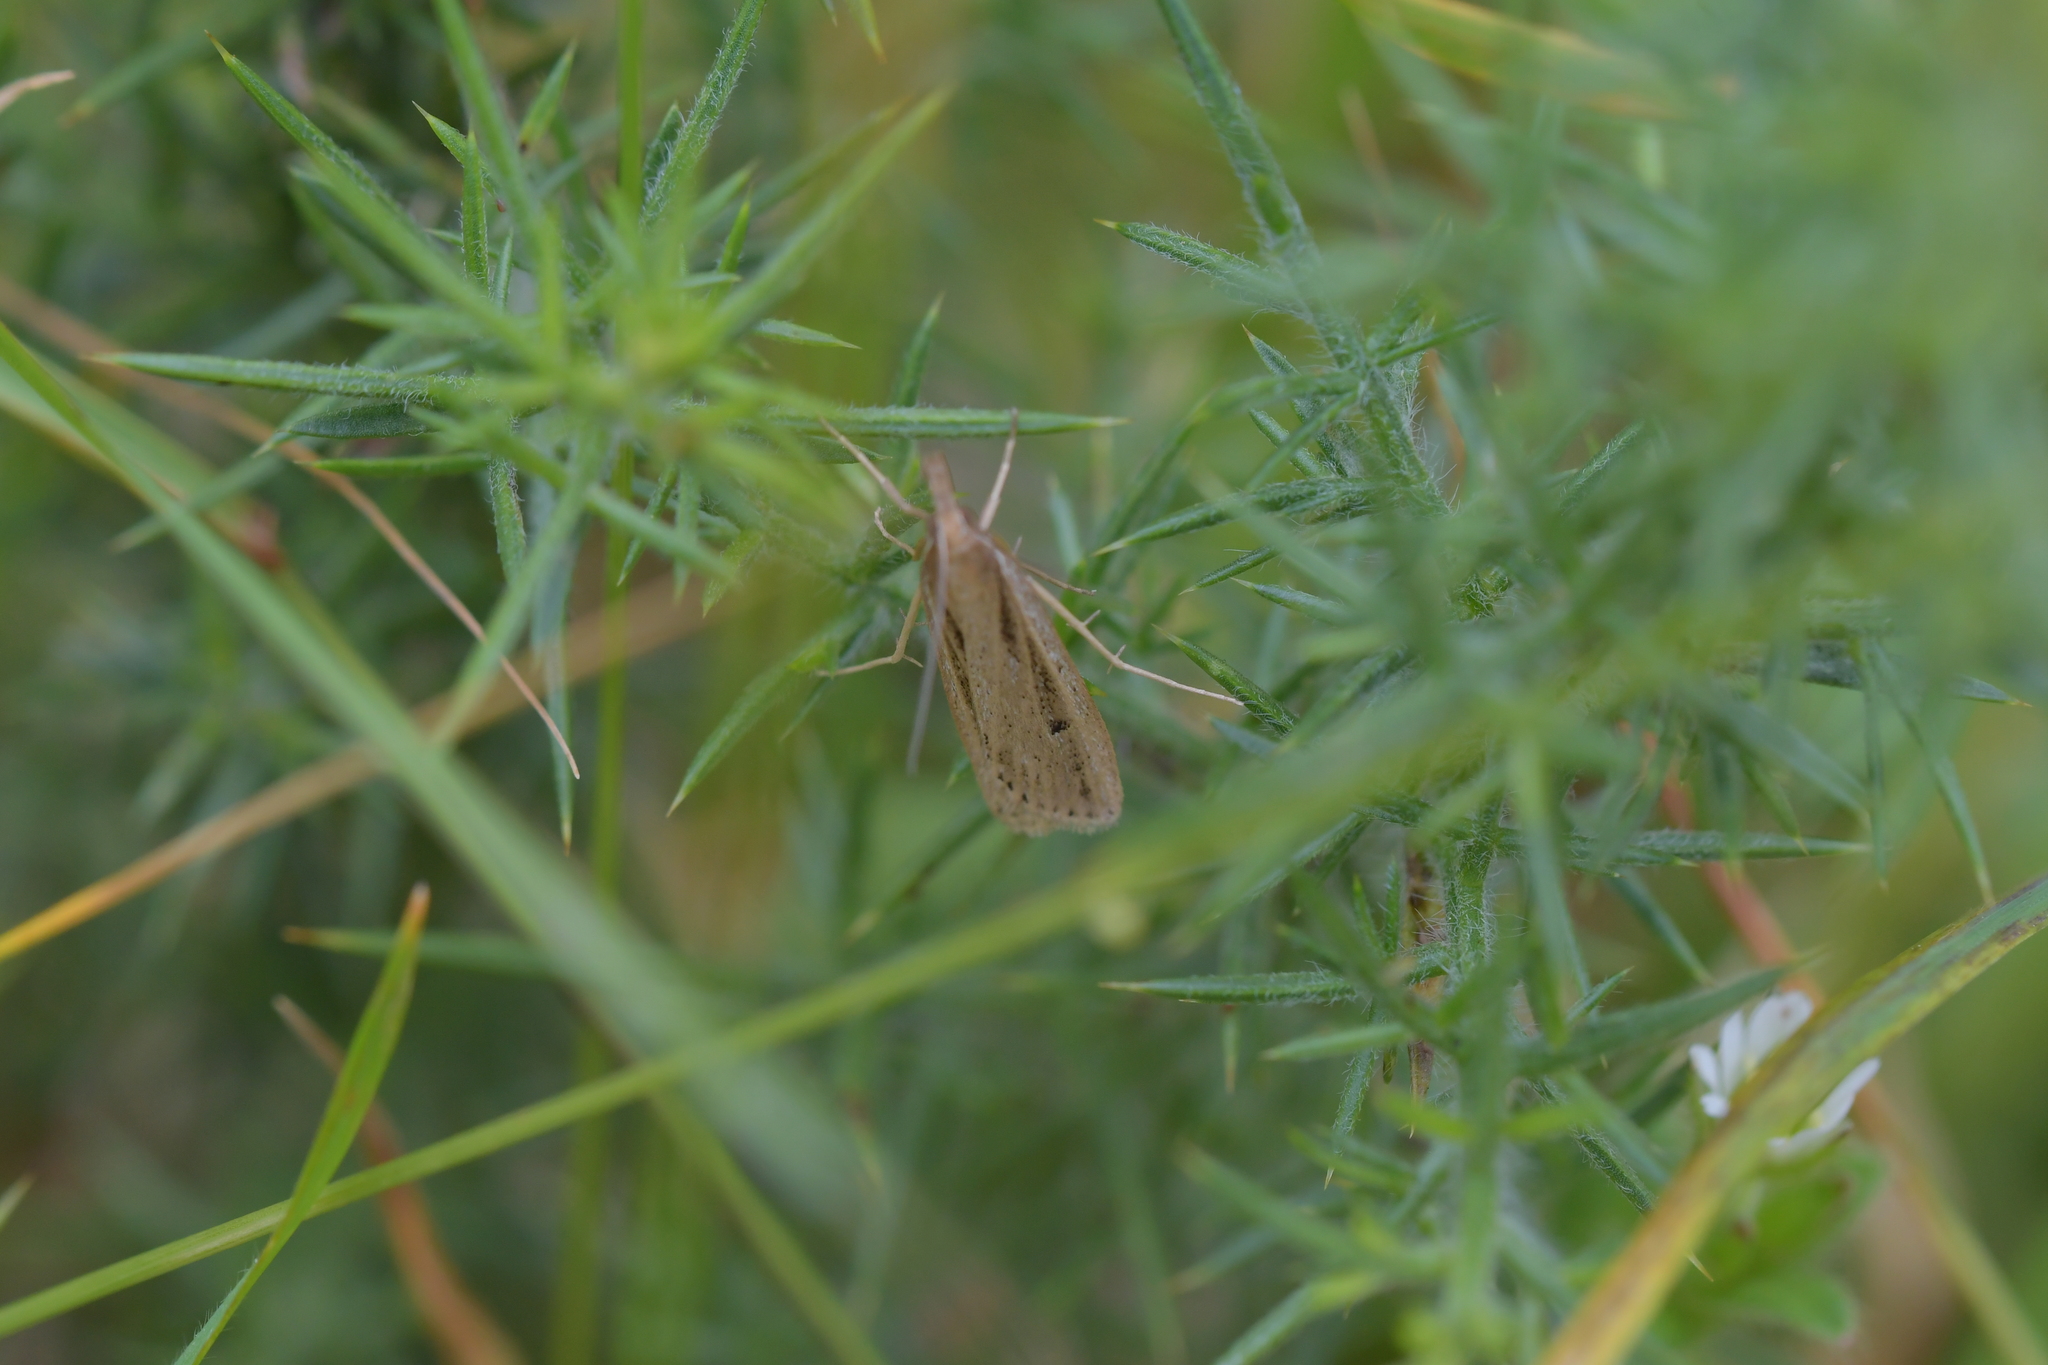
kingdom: Animalia
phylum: Arthropoda
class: Insecta
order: Lepidoptera
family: Crambidae
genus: Eudonia
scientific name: Eudonia sabulosella
